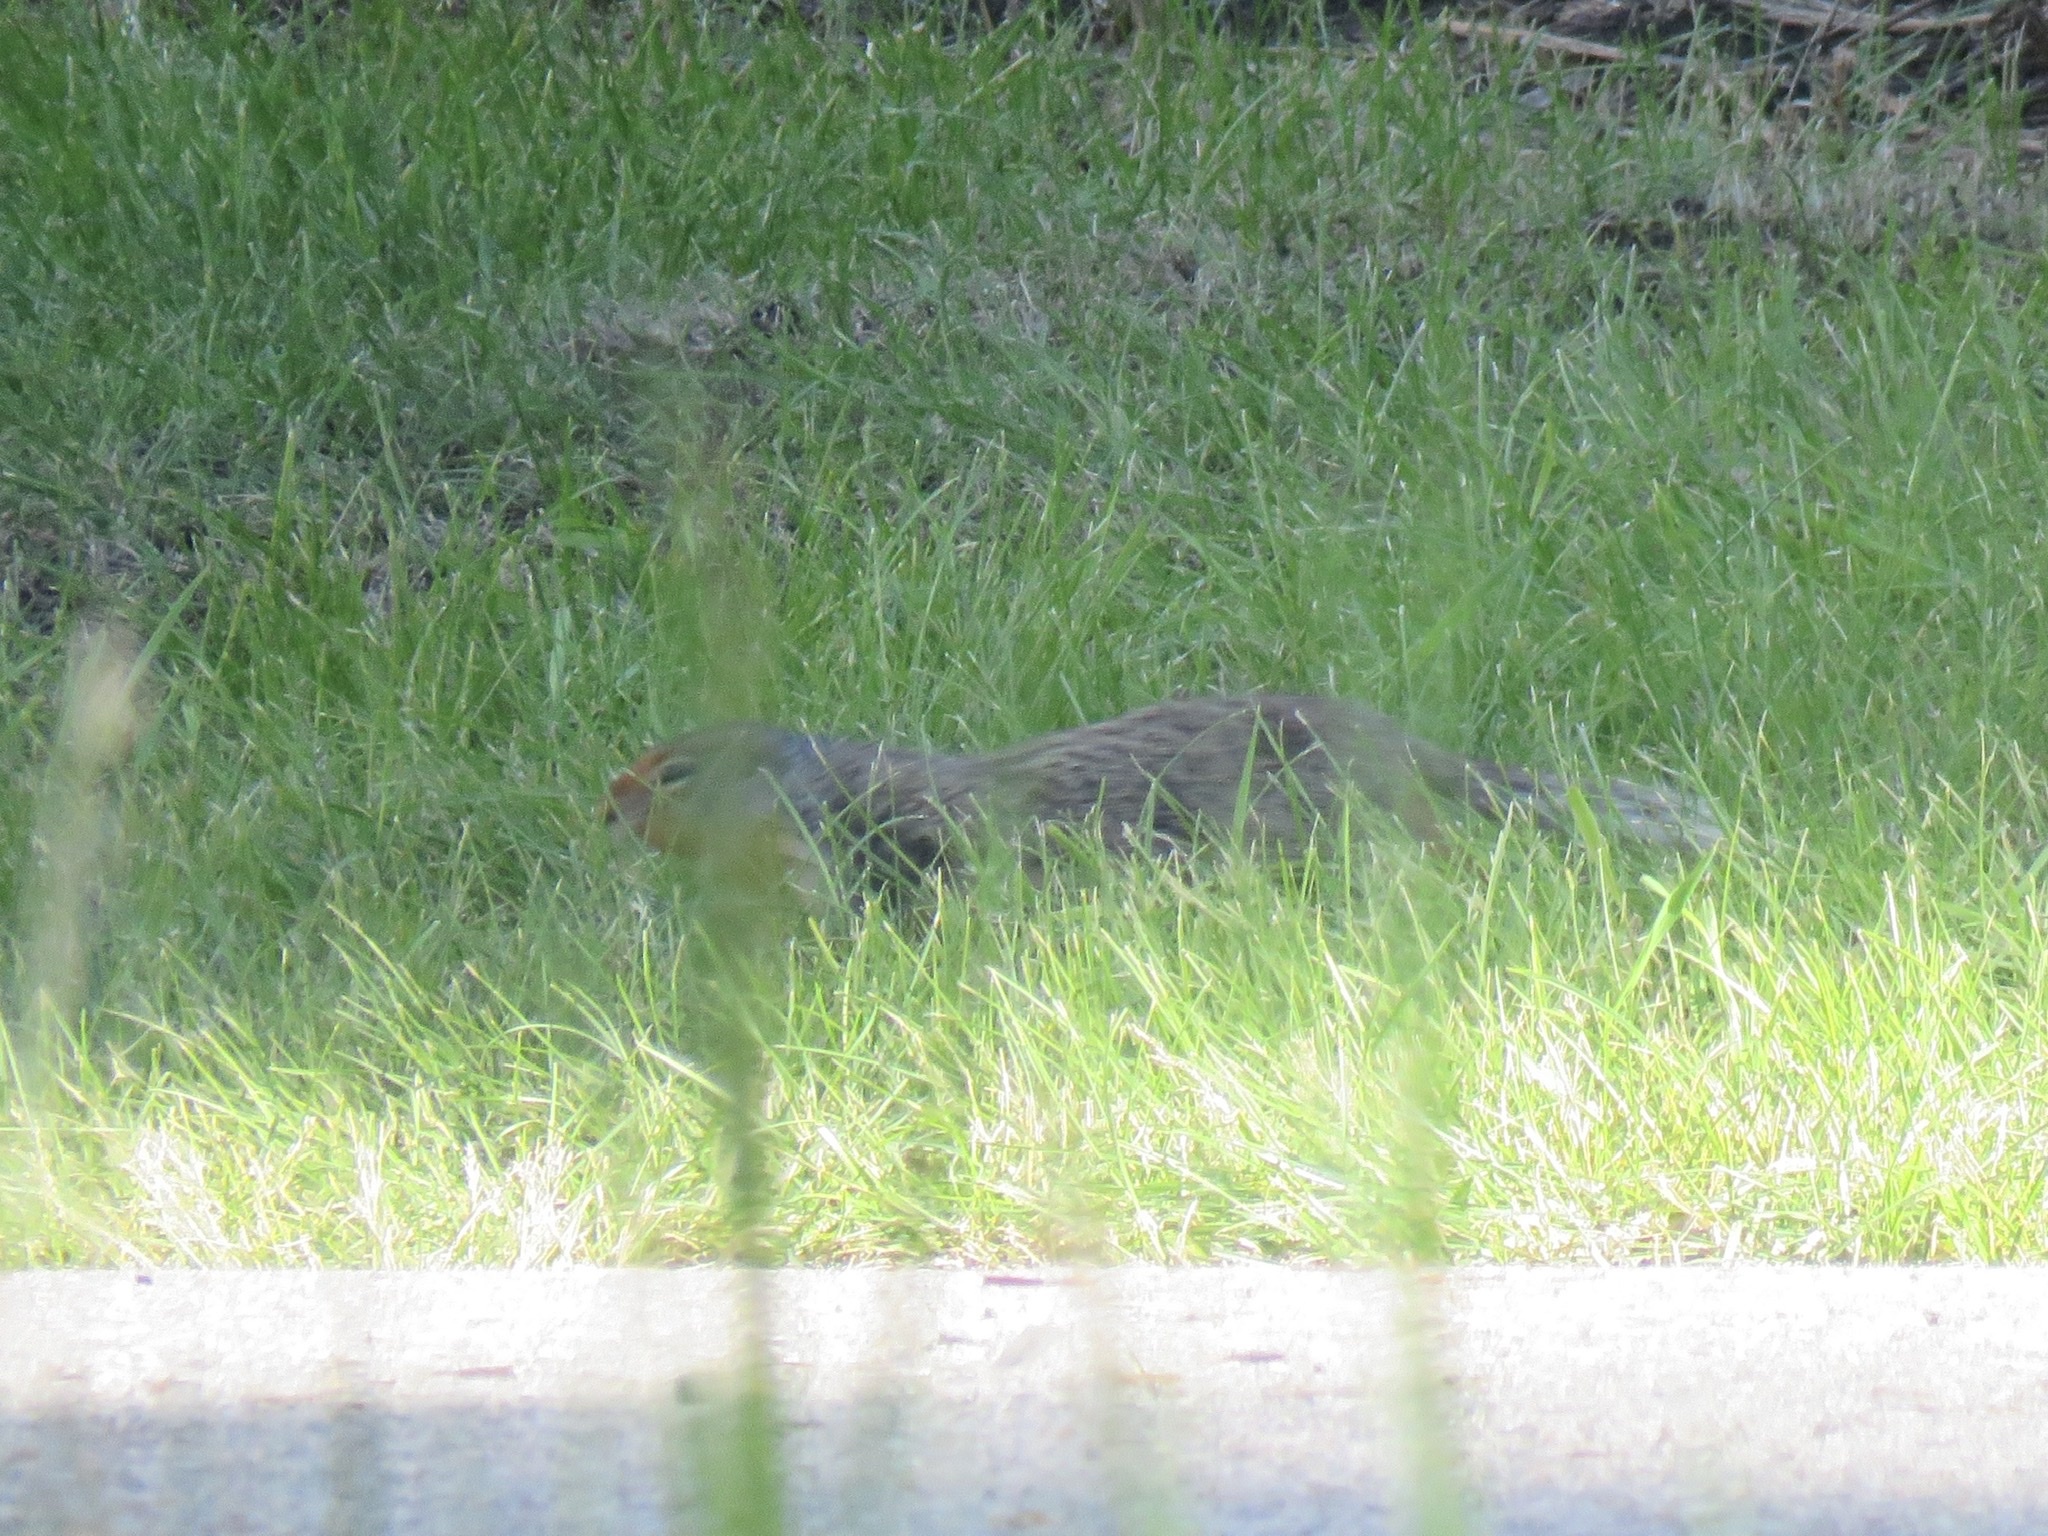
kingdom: Animalia
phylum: Chordata
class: Mammalia
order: Rodentia
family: Sciuridae
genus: Urocitellus
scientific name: Urocitellus columbianus
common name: Columbian ground squirrel
